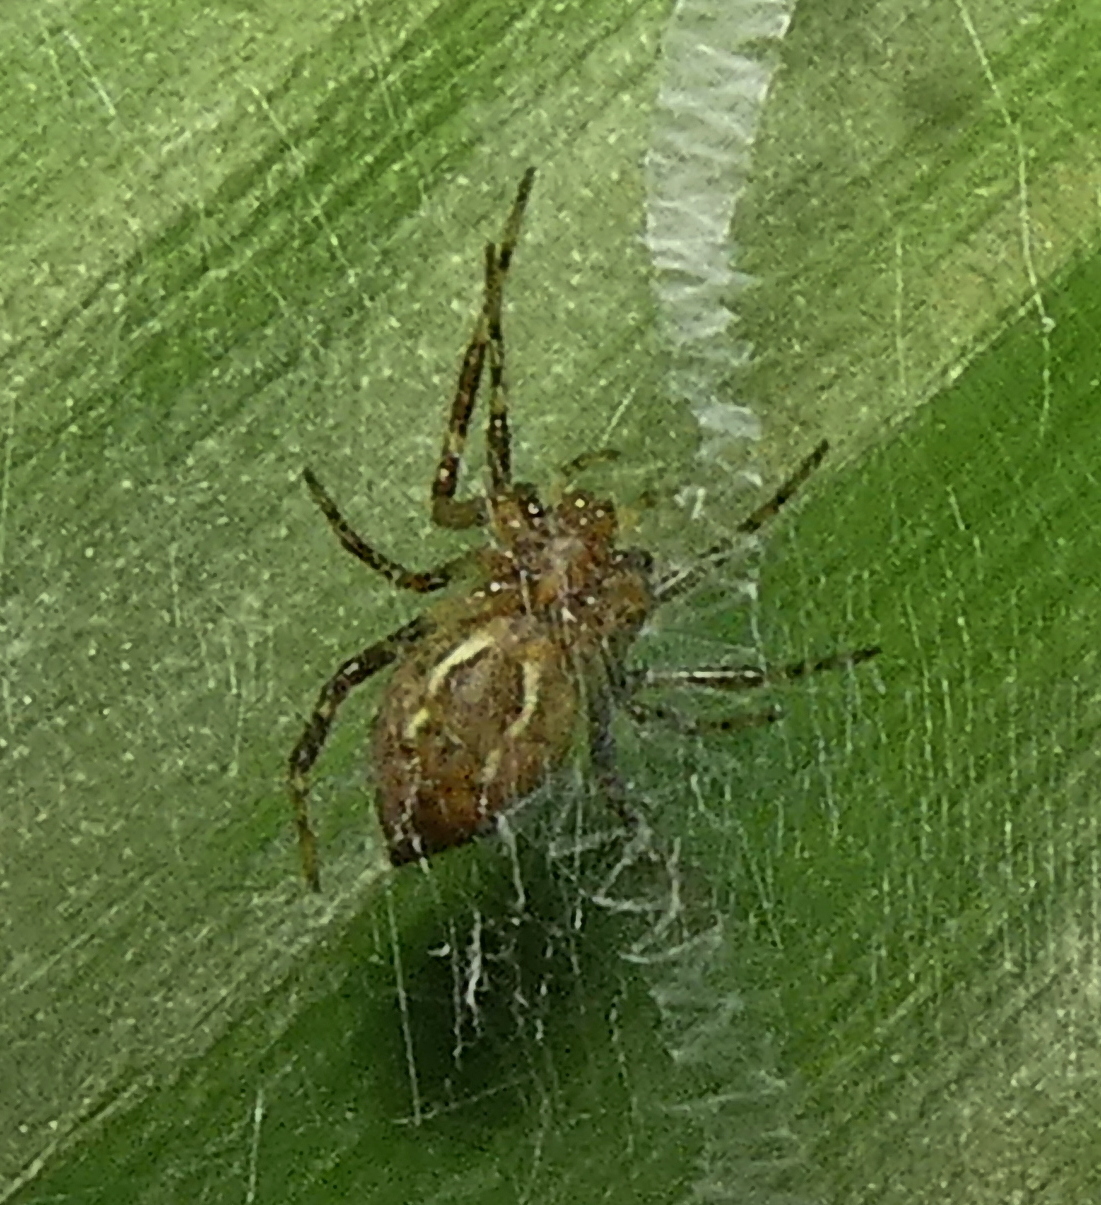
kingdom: Animalia
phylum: Arthropoda
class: Arachnida
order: Araneae
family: Araneidae
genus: Argiope
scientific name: Argiope carvalhoi
